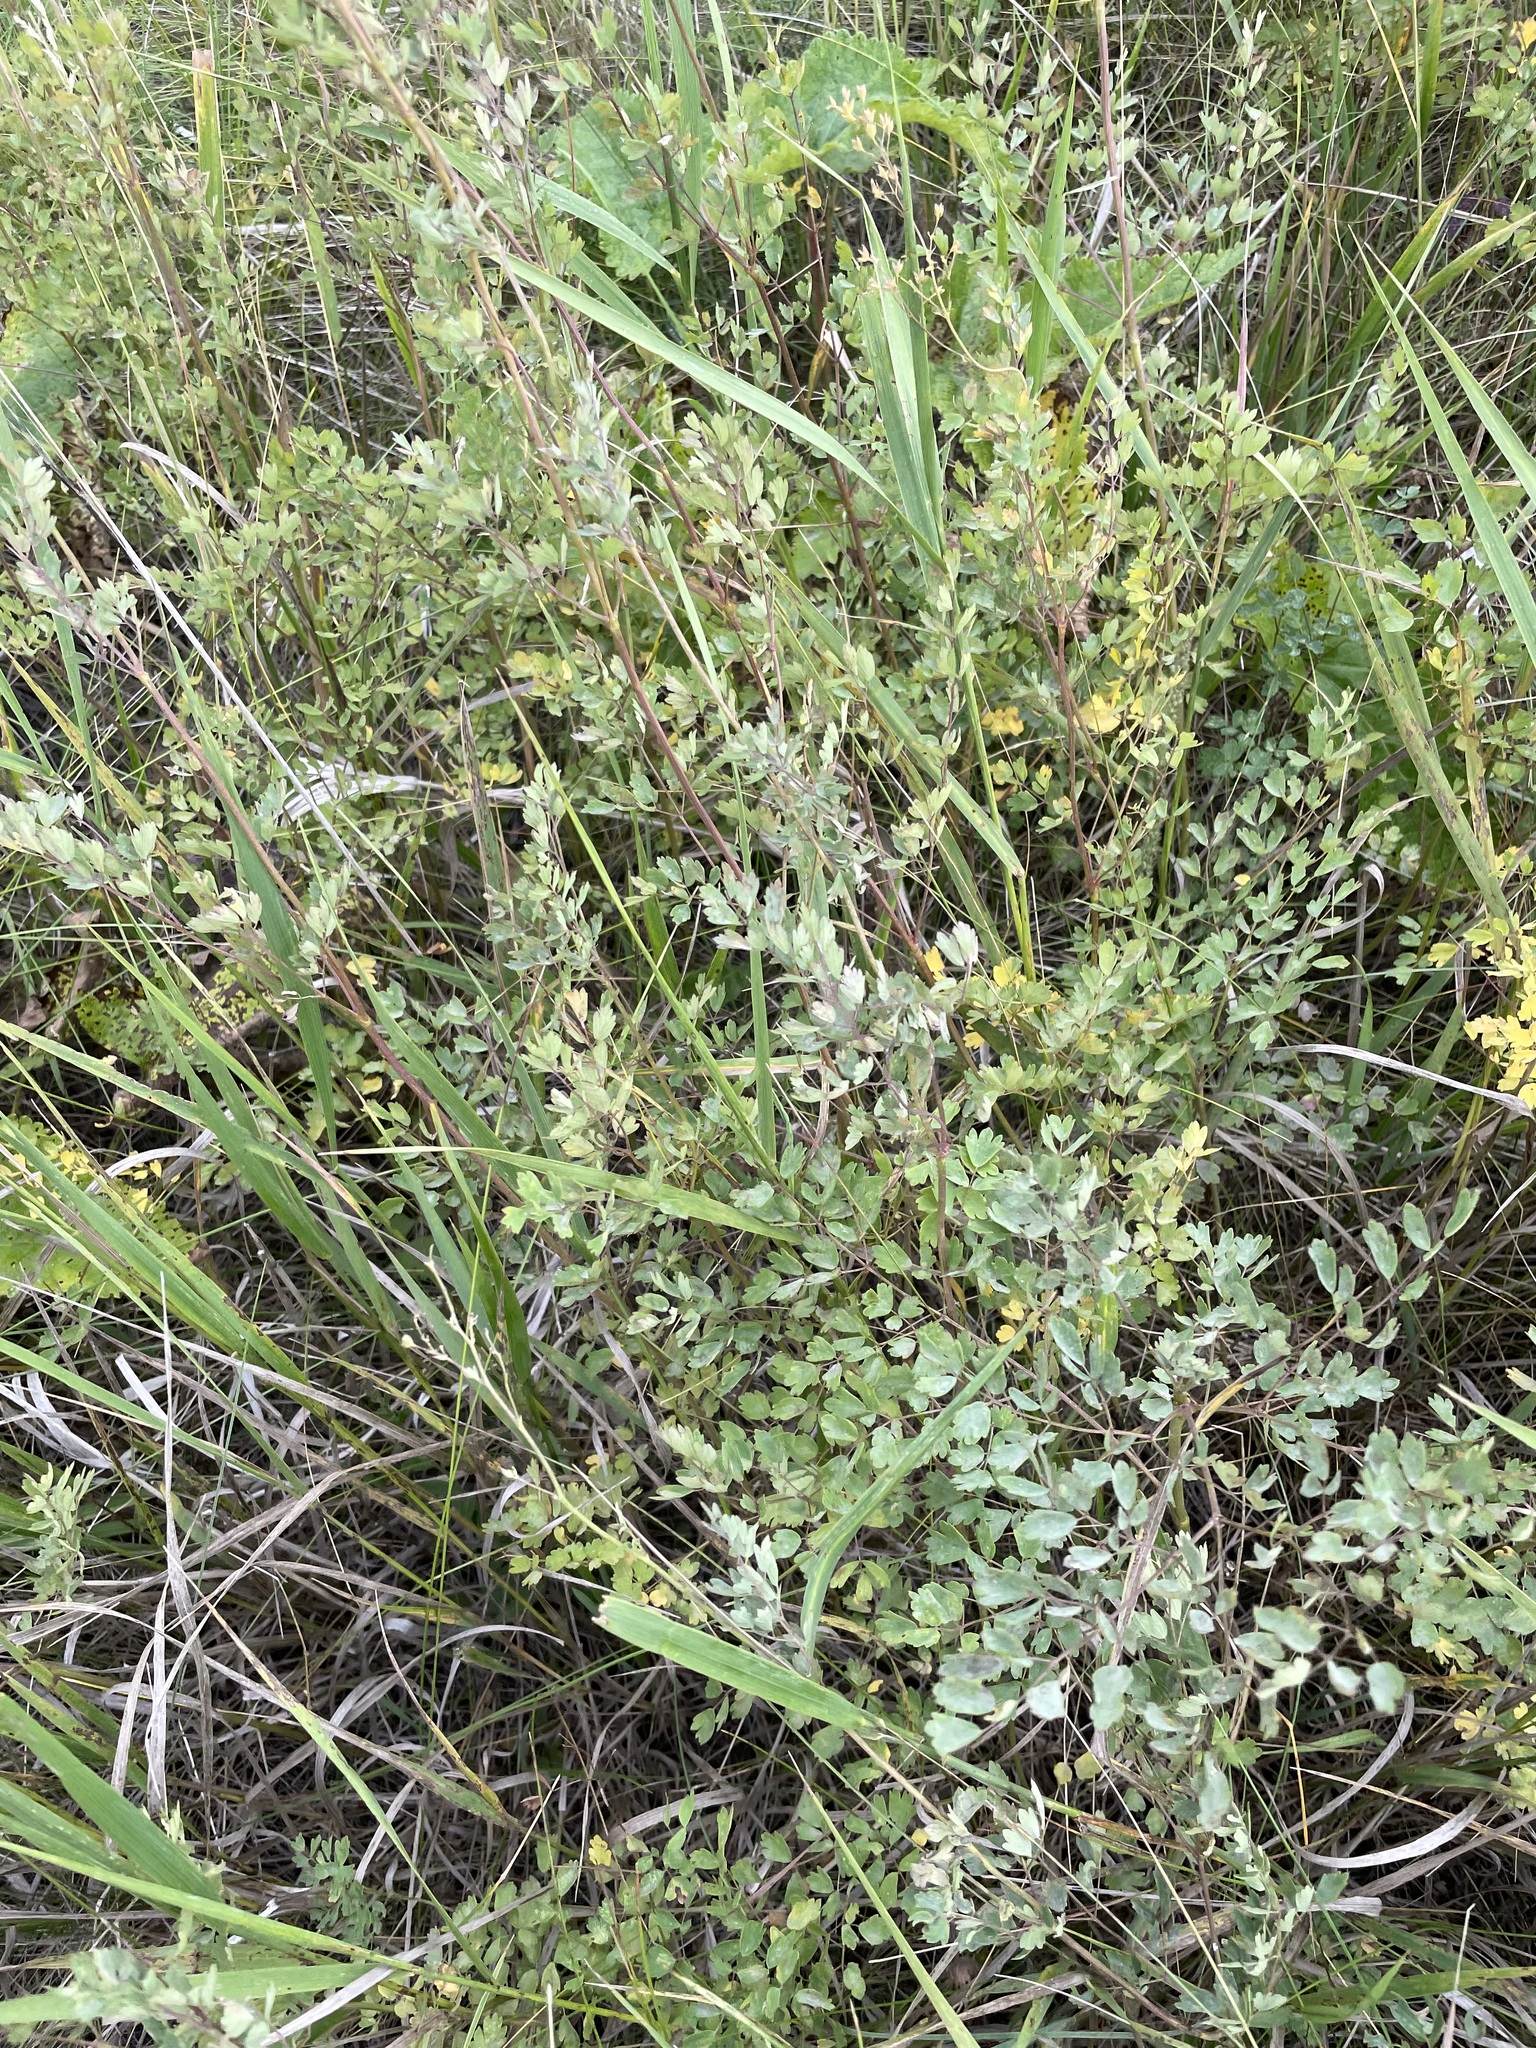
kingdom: Plantae
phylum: Tracheophyta
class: Magnoliopsida
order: Ranunculales
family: Ranunculaceae
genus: Thalictrum
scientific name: Thalictrum minus
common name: Lesser meadow-rue
